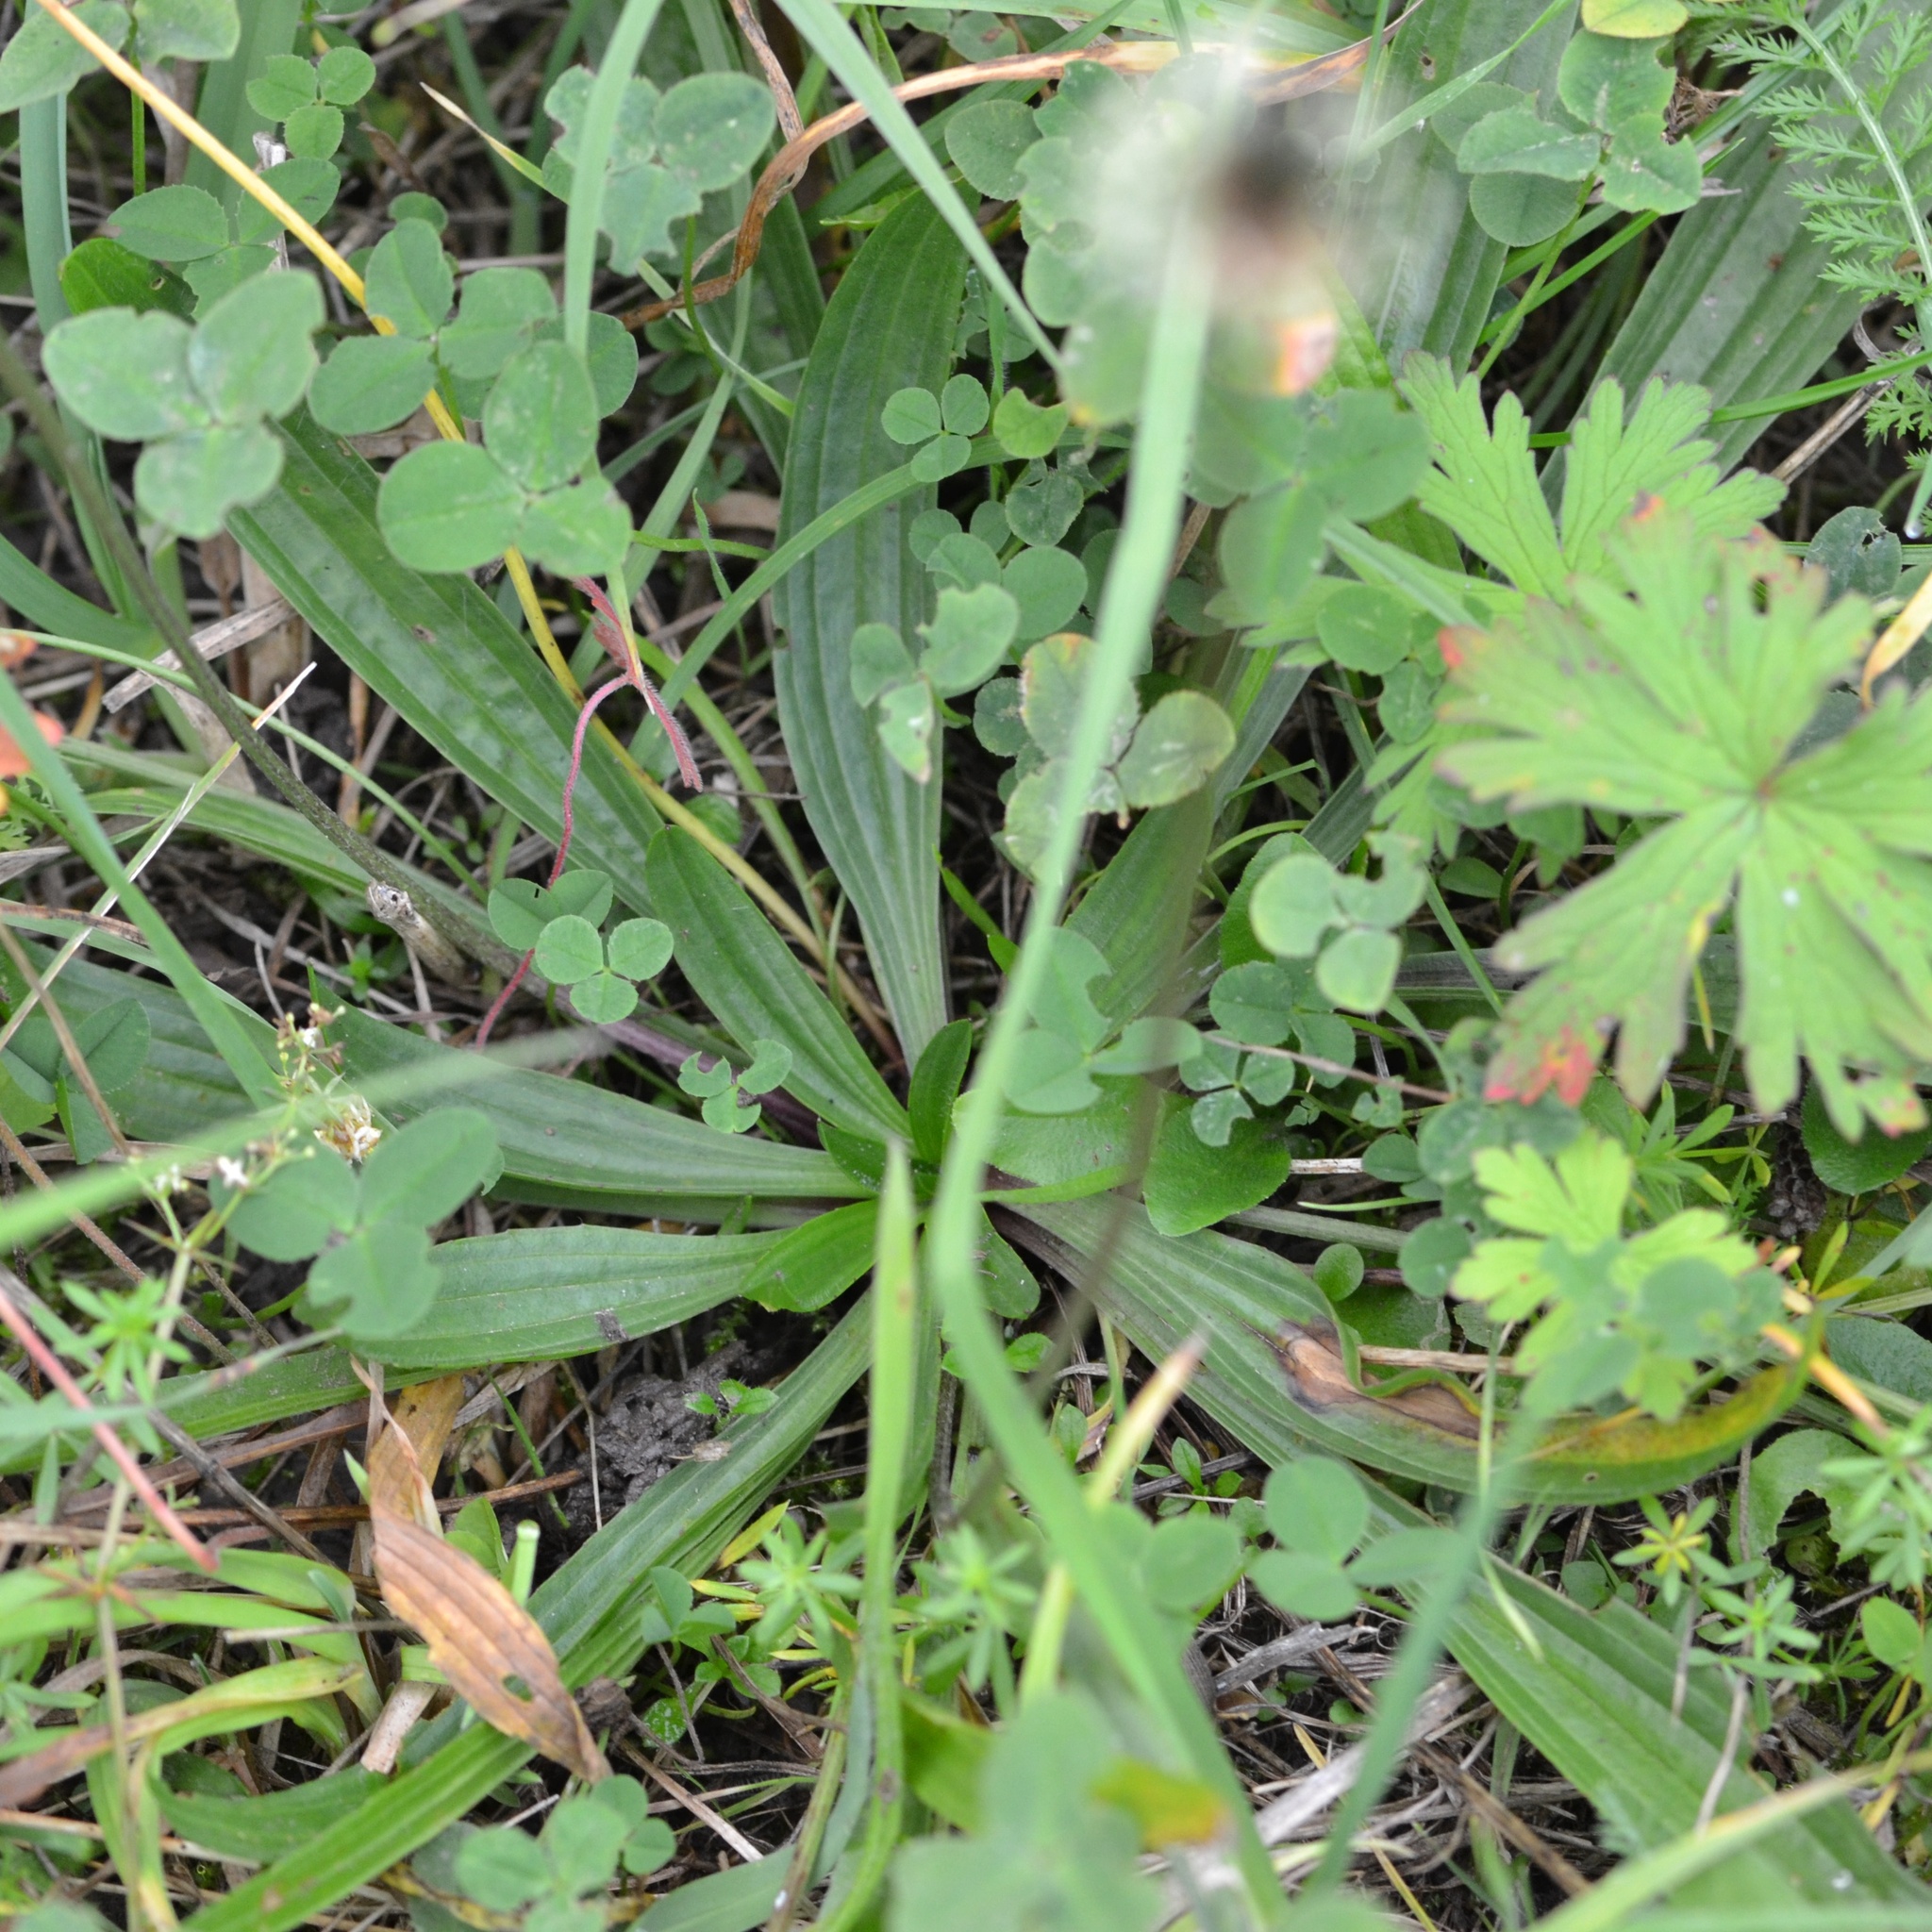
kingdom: Plantae
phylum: Tracheophyta
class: Magnoliopsida
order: Lamiales
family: Plantaginaceae
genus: Plantago
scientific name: Plantago lanceolata
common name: Ribwort plantain
